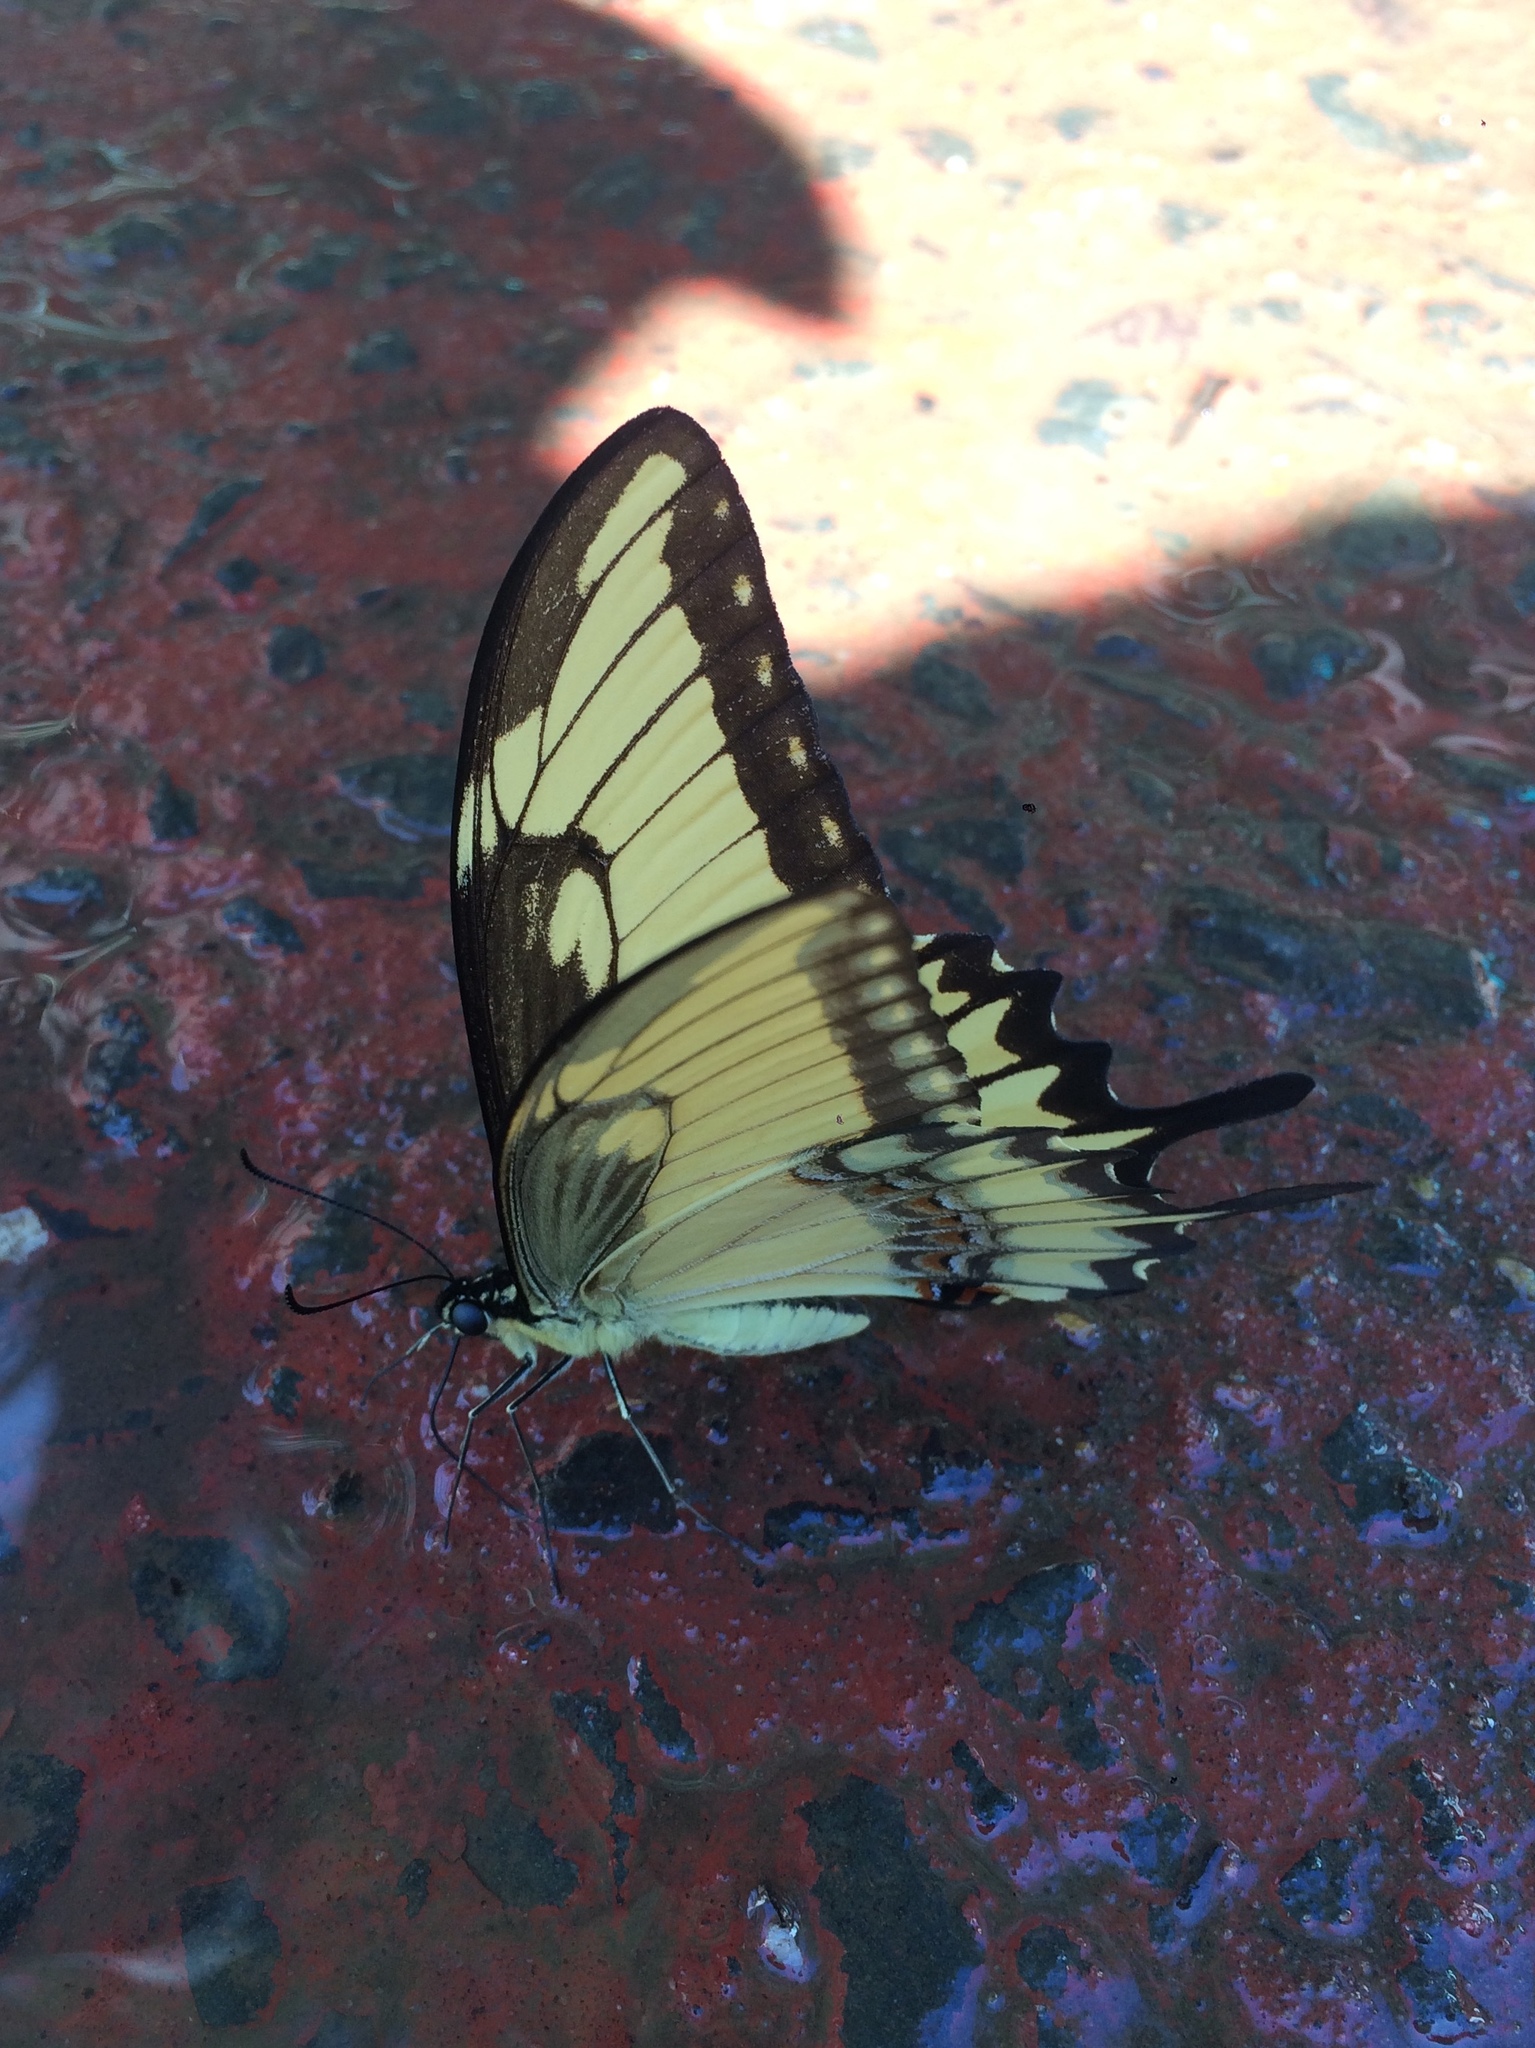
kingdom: Animalia
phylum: Arthropoda
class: Insecta
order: Lepidoptera
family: Papilionidae
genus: Papilio
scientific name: Papilio astyalus
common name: Astyalus swallowtail
